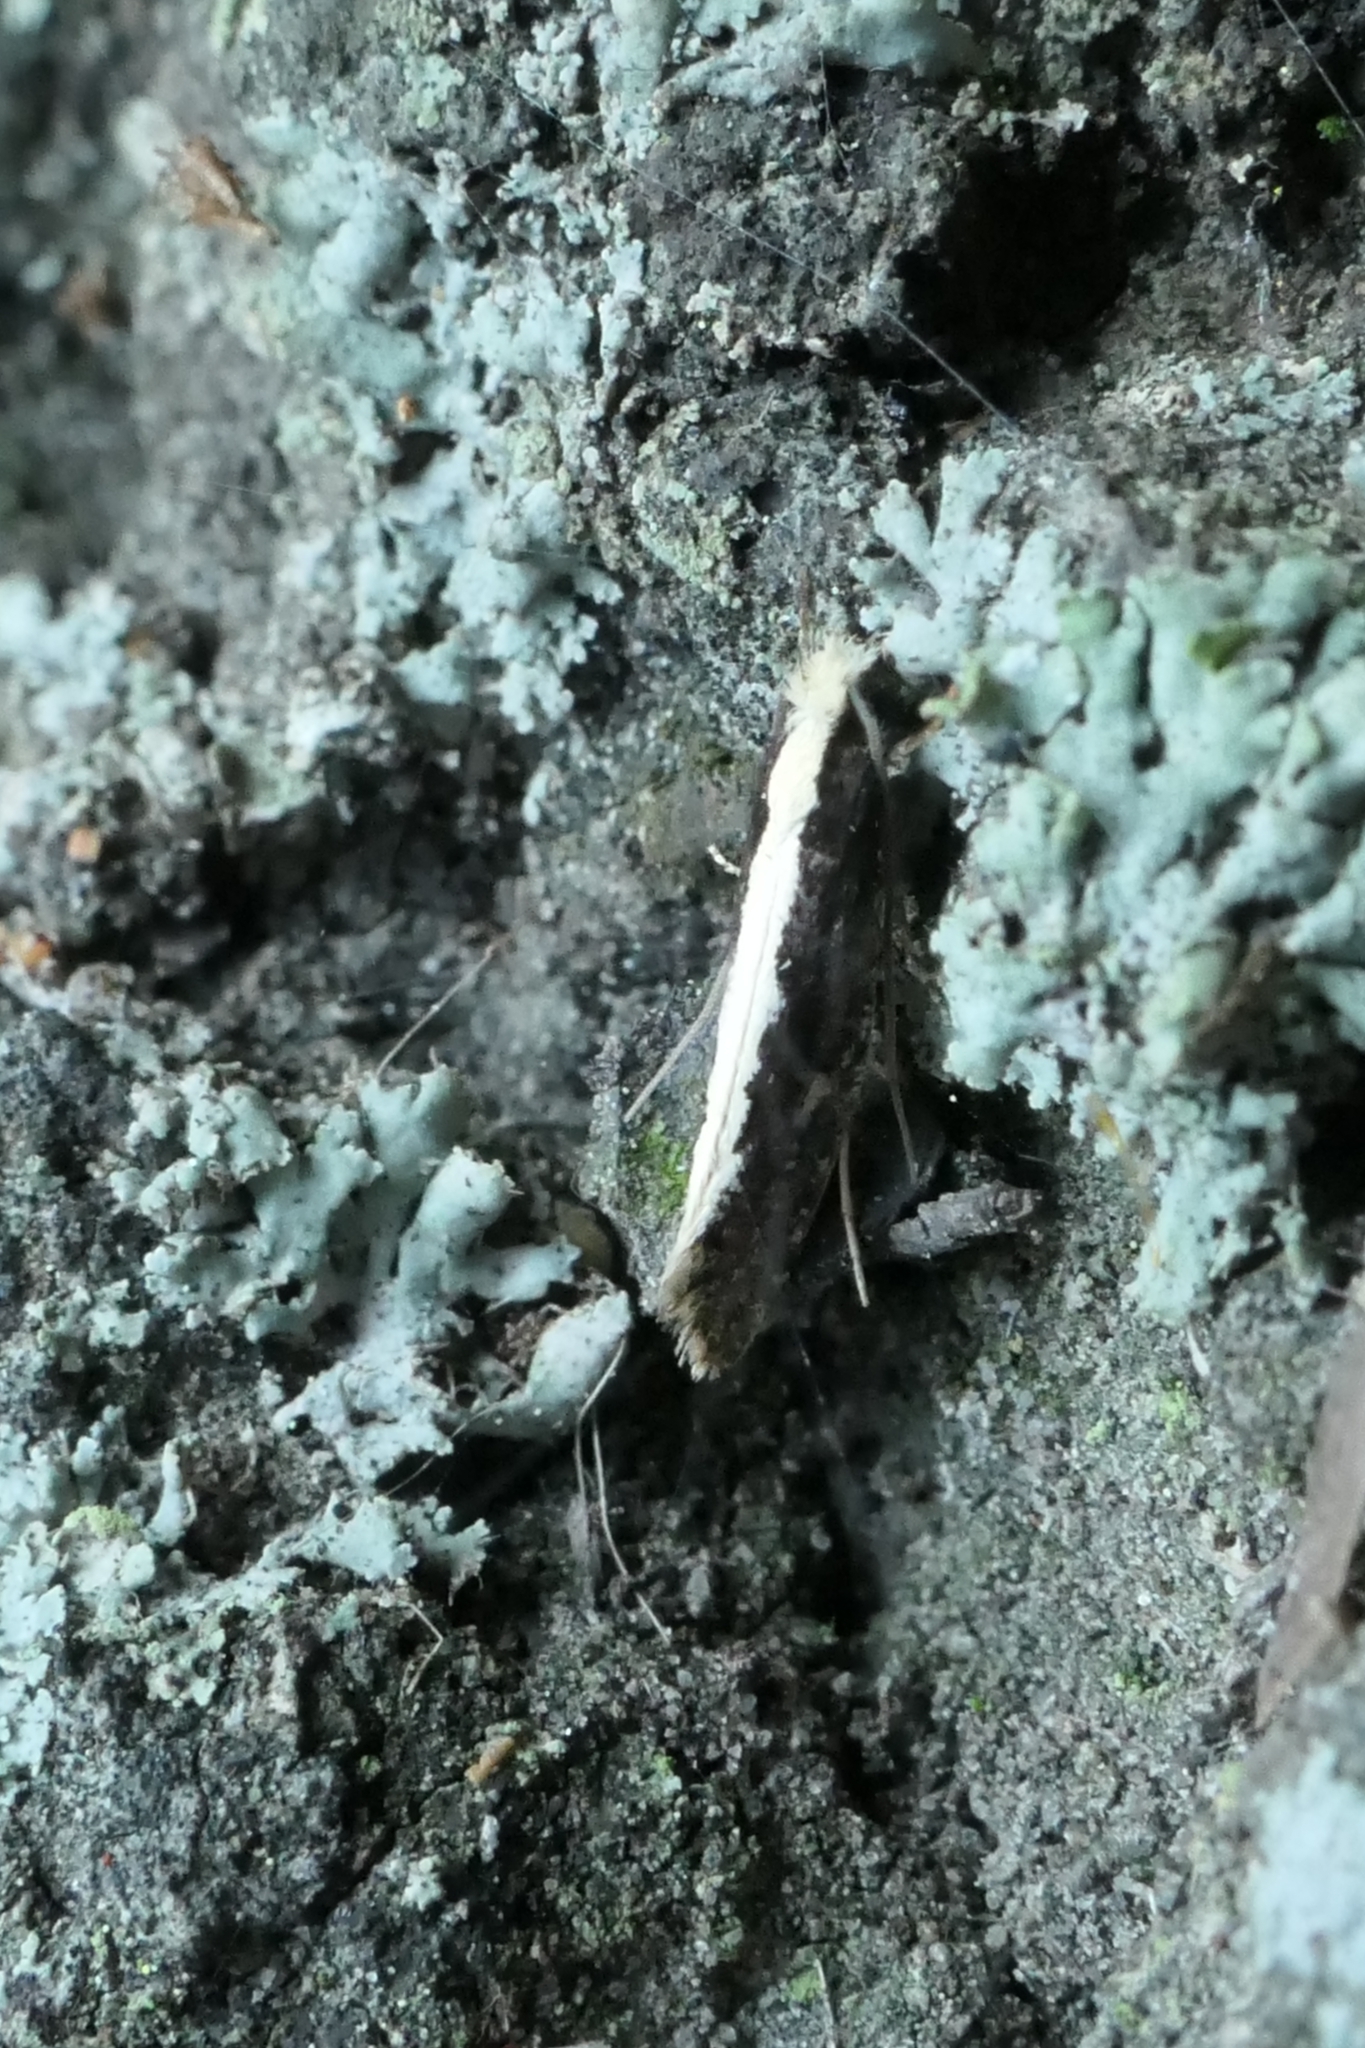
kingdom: Animalia
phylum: Arthropoda
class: Insecta
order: Lepidoptera
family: Tineidae
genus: Monopis
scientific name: Monopis ethelella
